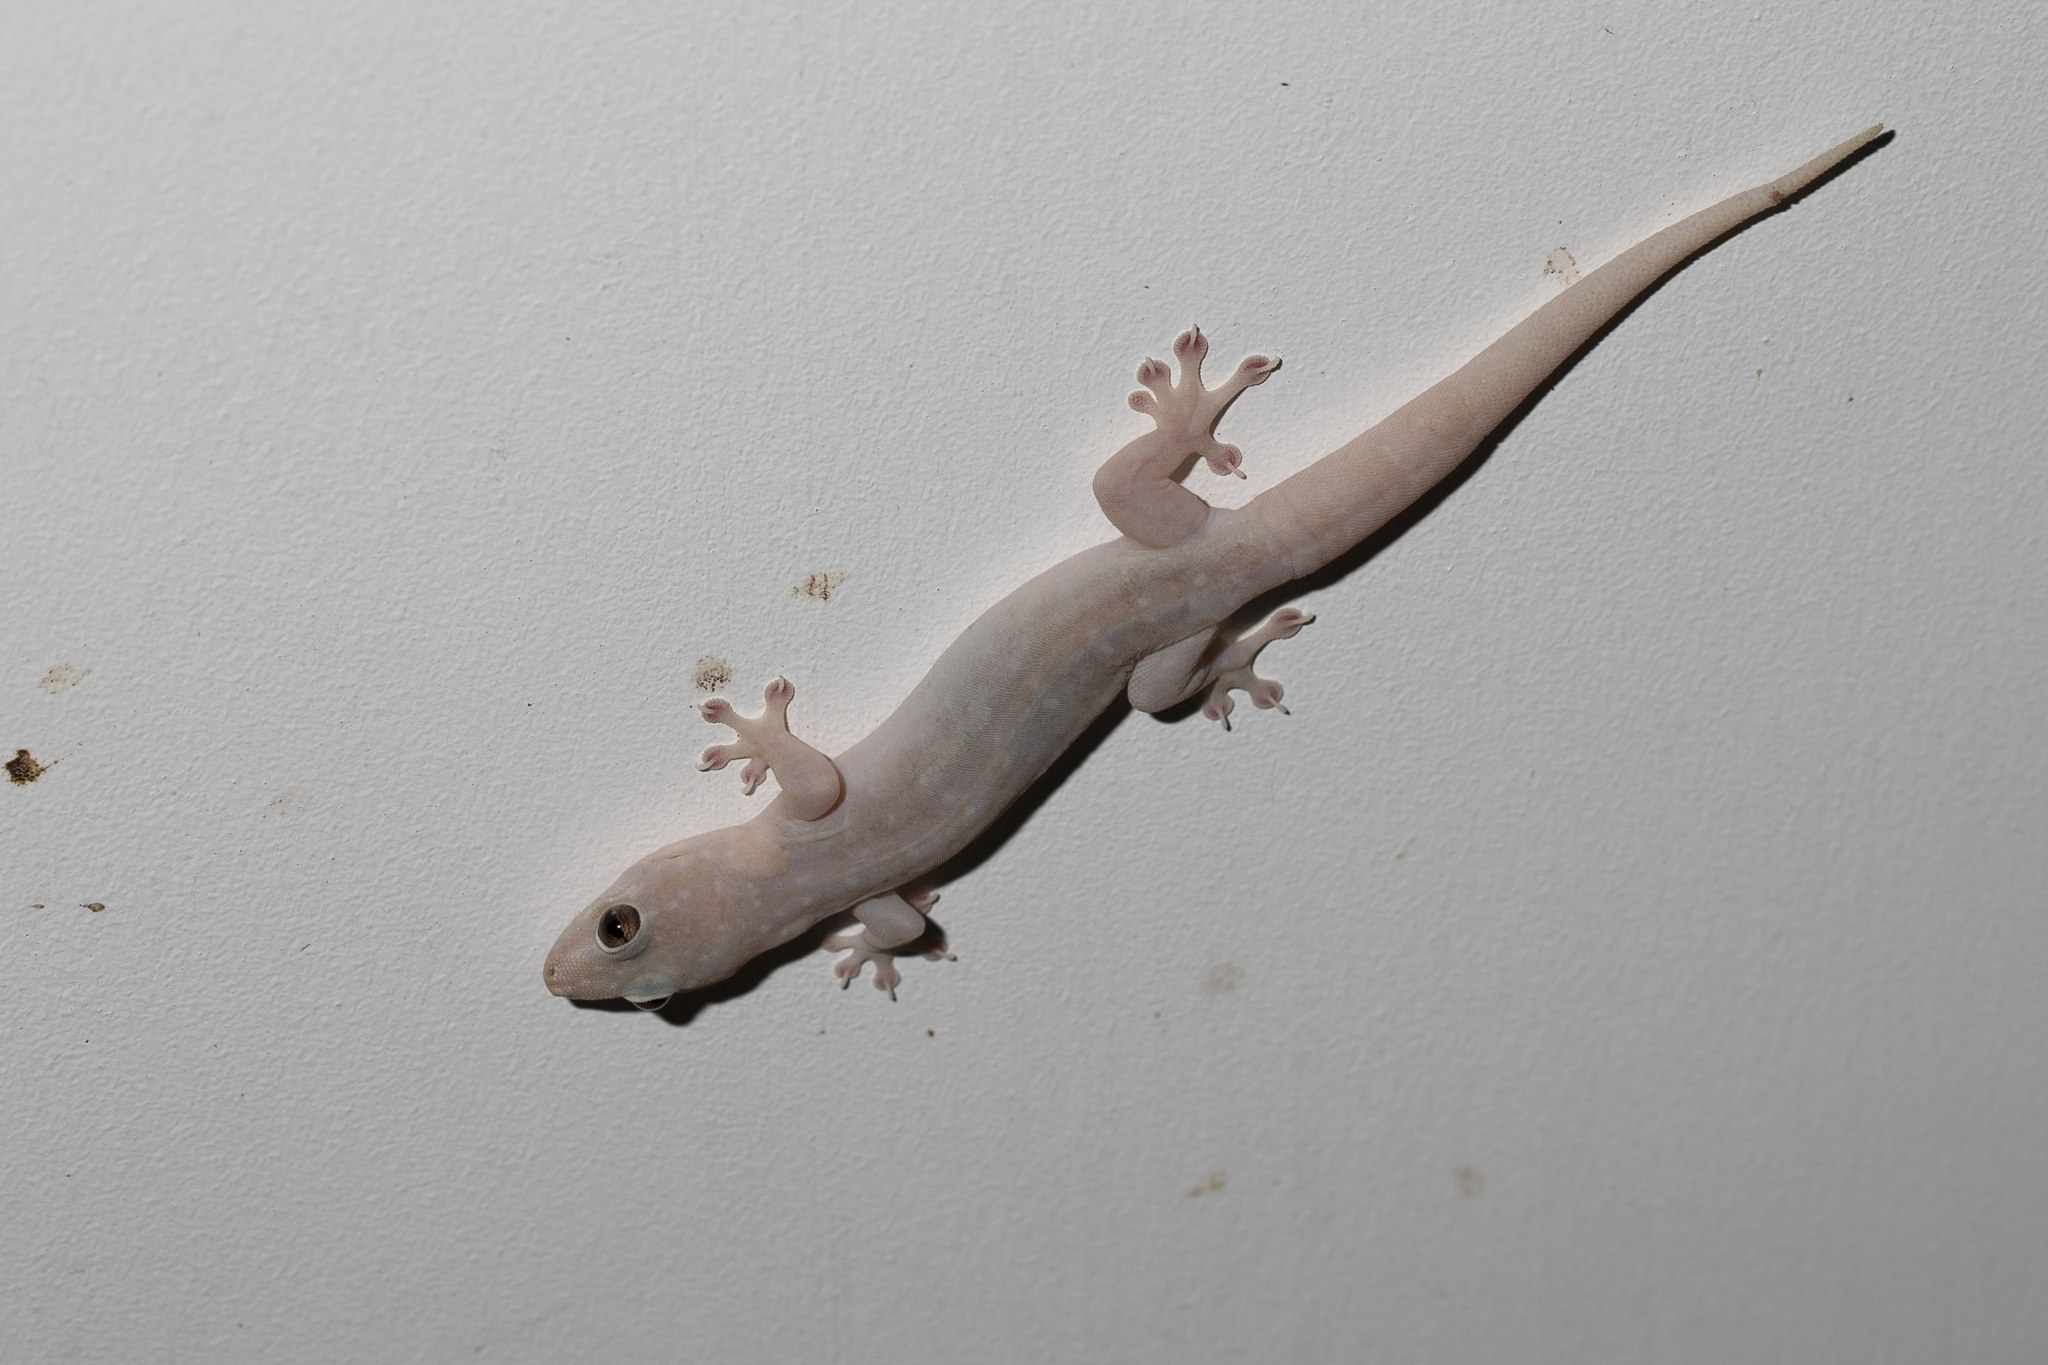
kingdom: Animalia
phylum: Chordata
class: Squamata
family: Gekkonidae
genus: Gehyra
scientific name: Gehyra dubia
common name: Dubious dtella
